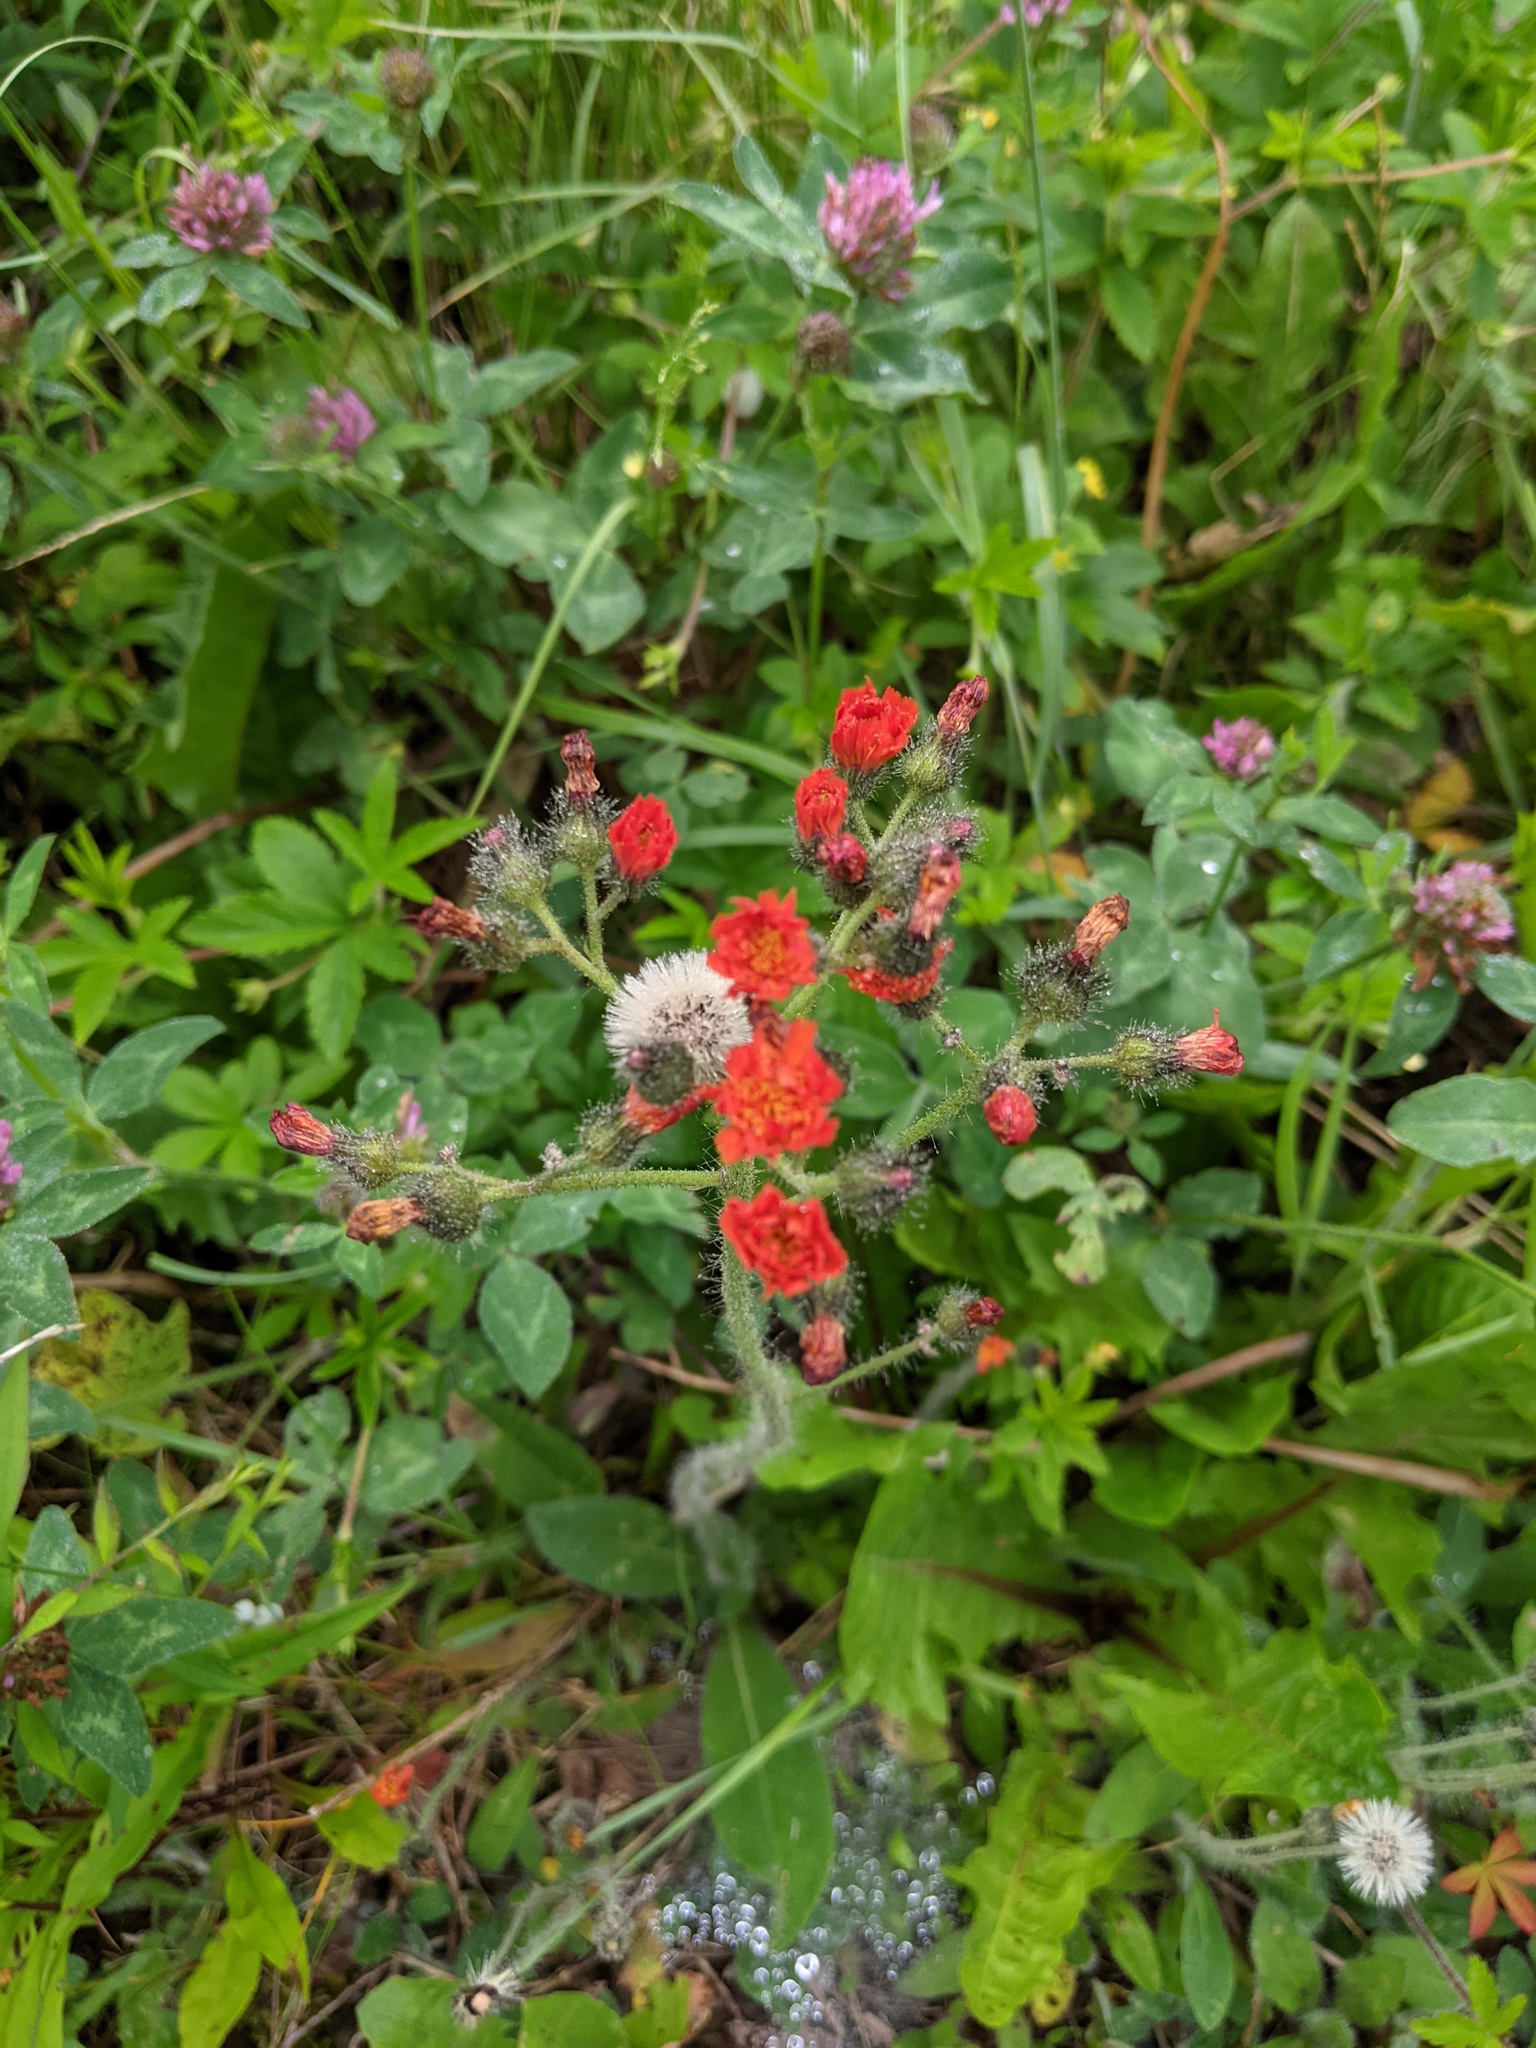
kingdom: Plantae
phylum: Tracheophyta
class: Magnoliopsida
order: Asterales
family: Asteraceae
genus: Pilosella
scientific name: Pilosella aurantiaca
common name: Fox-and-cubs
